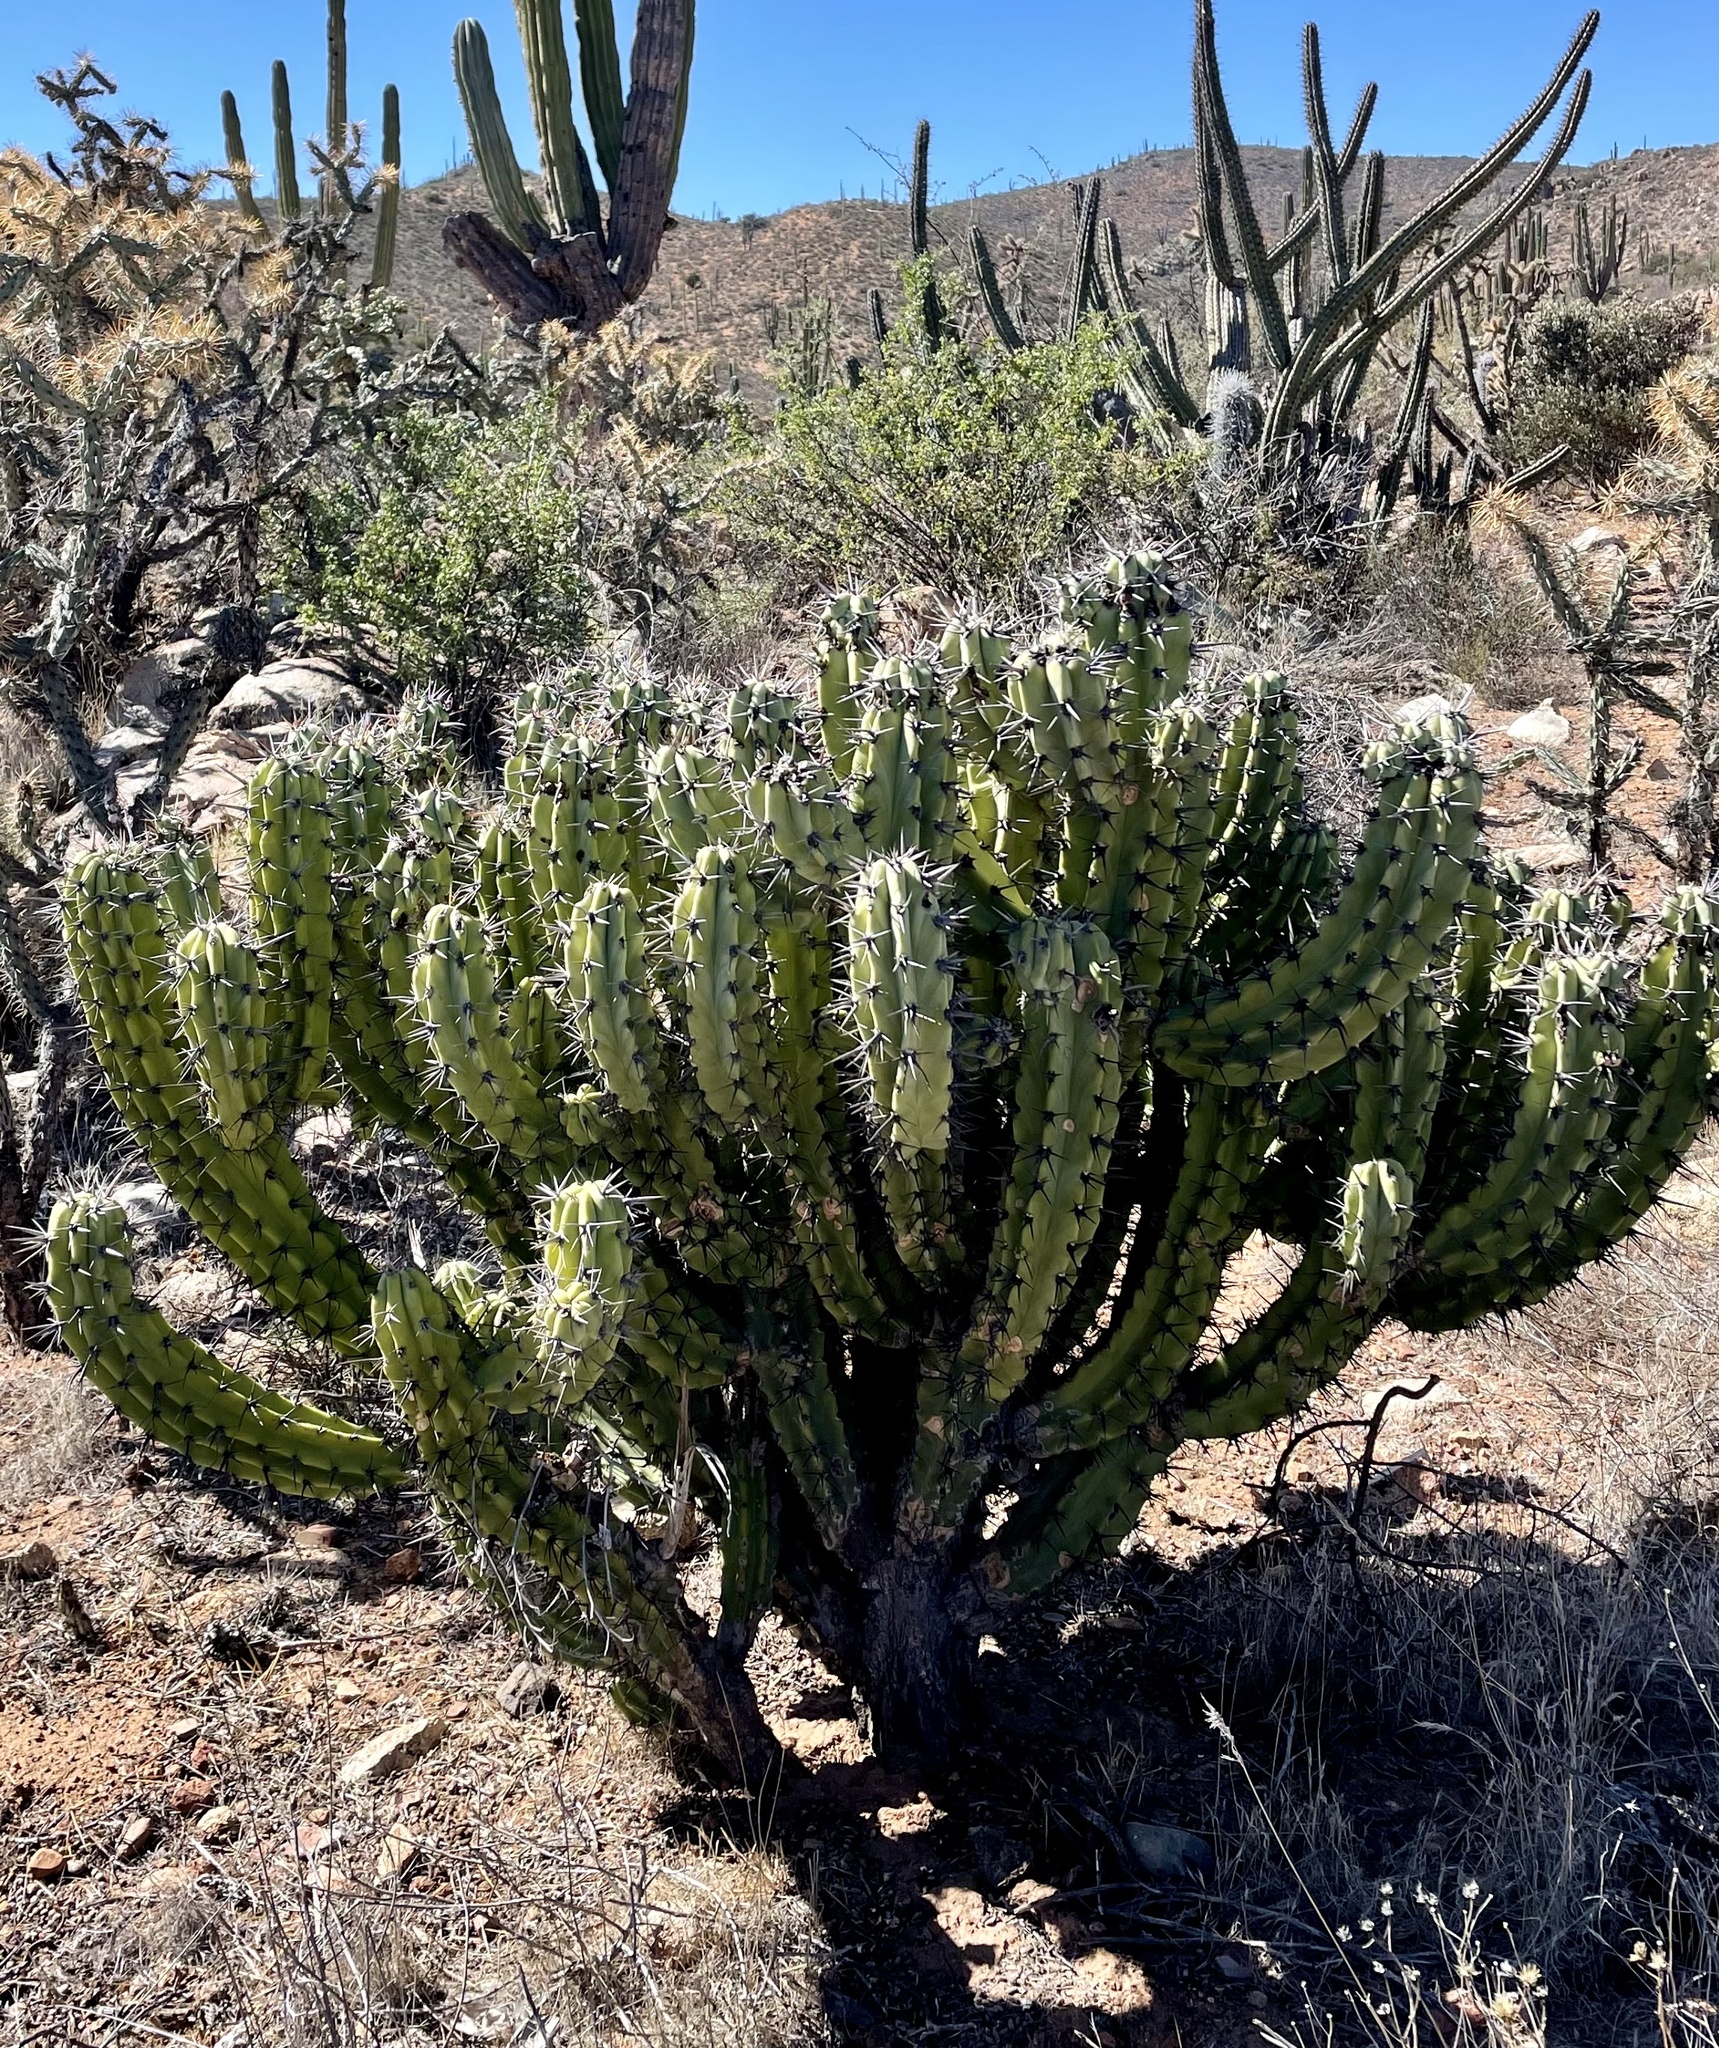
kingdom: Plantae
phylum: Tracheophyta
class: Magnoliopsida
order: Caryophyllales
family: Cactaceae
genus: Myrtillocactus
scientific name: Myrtillocactus cochal
